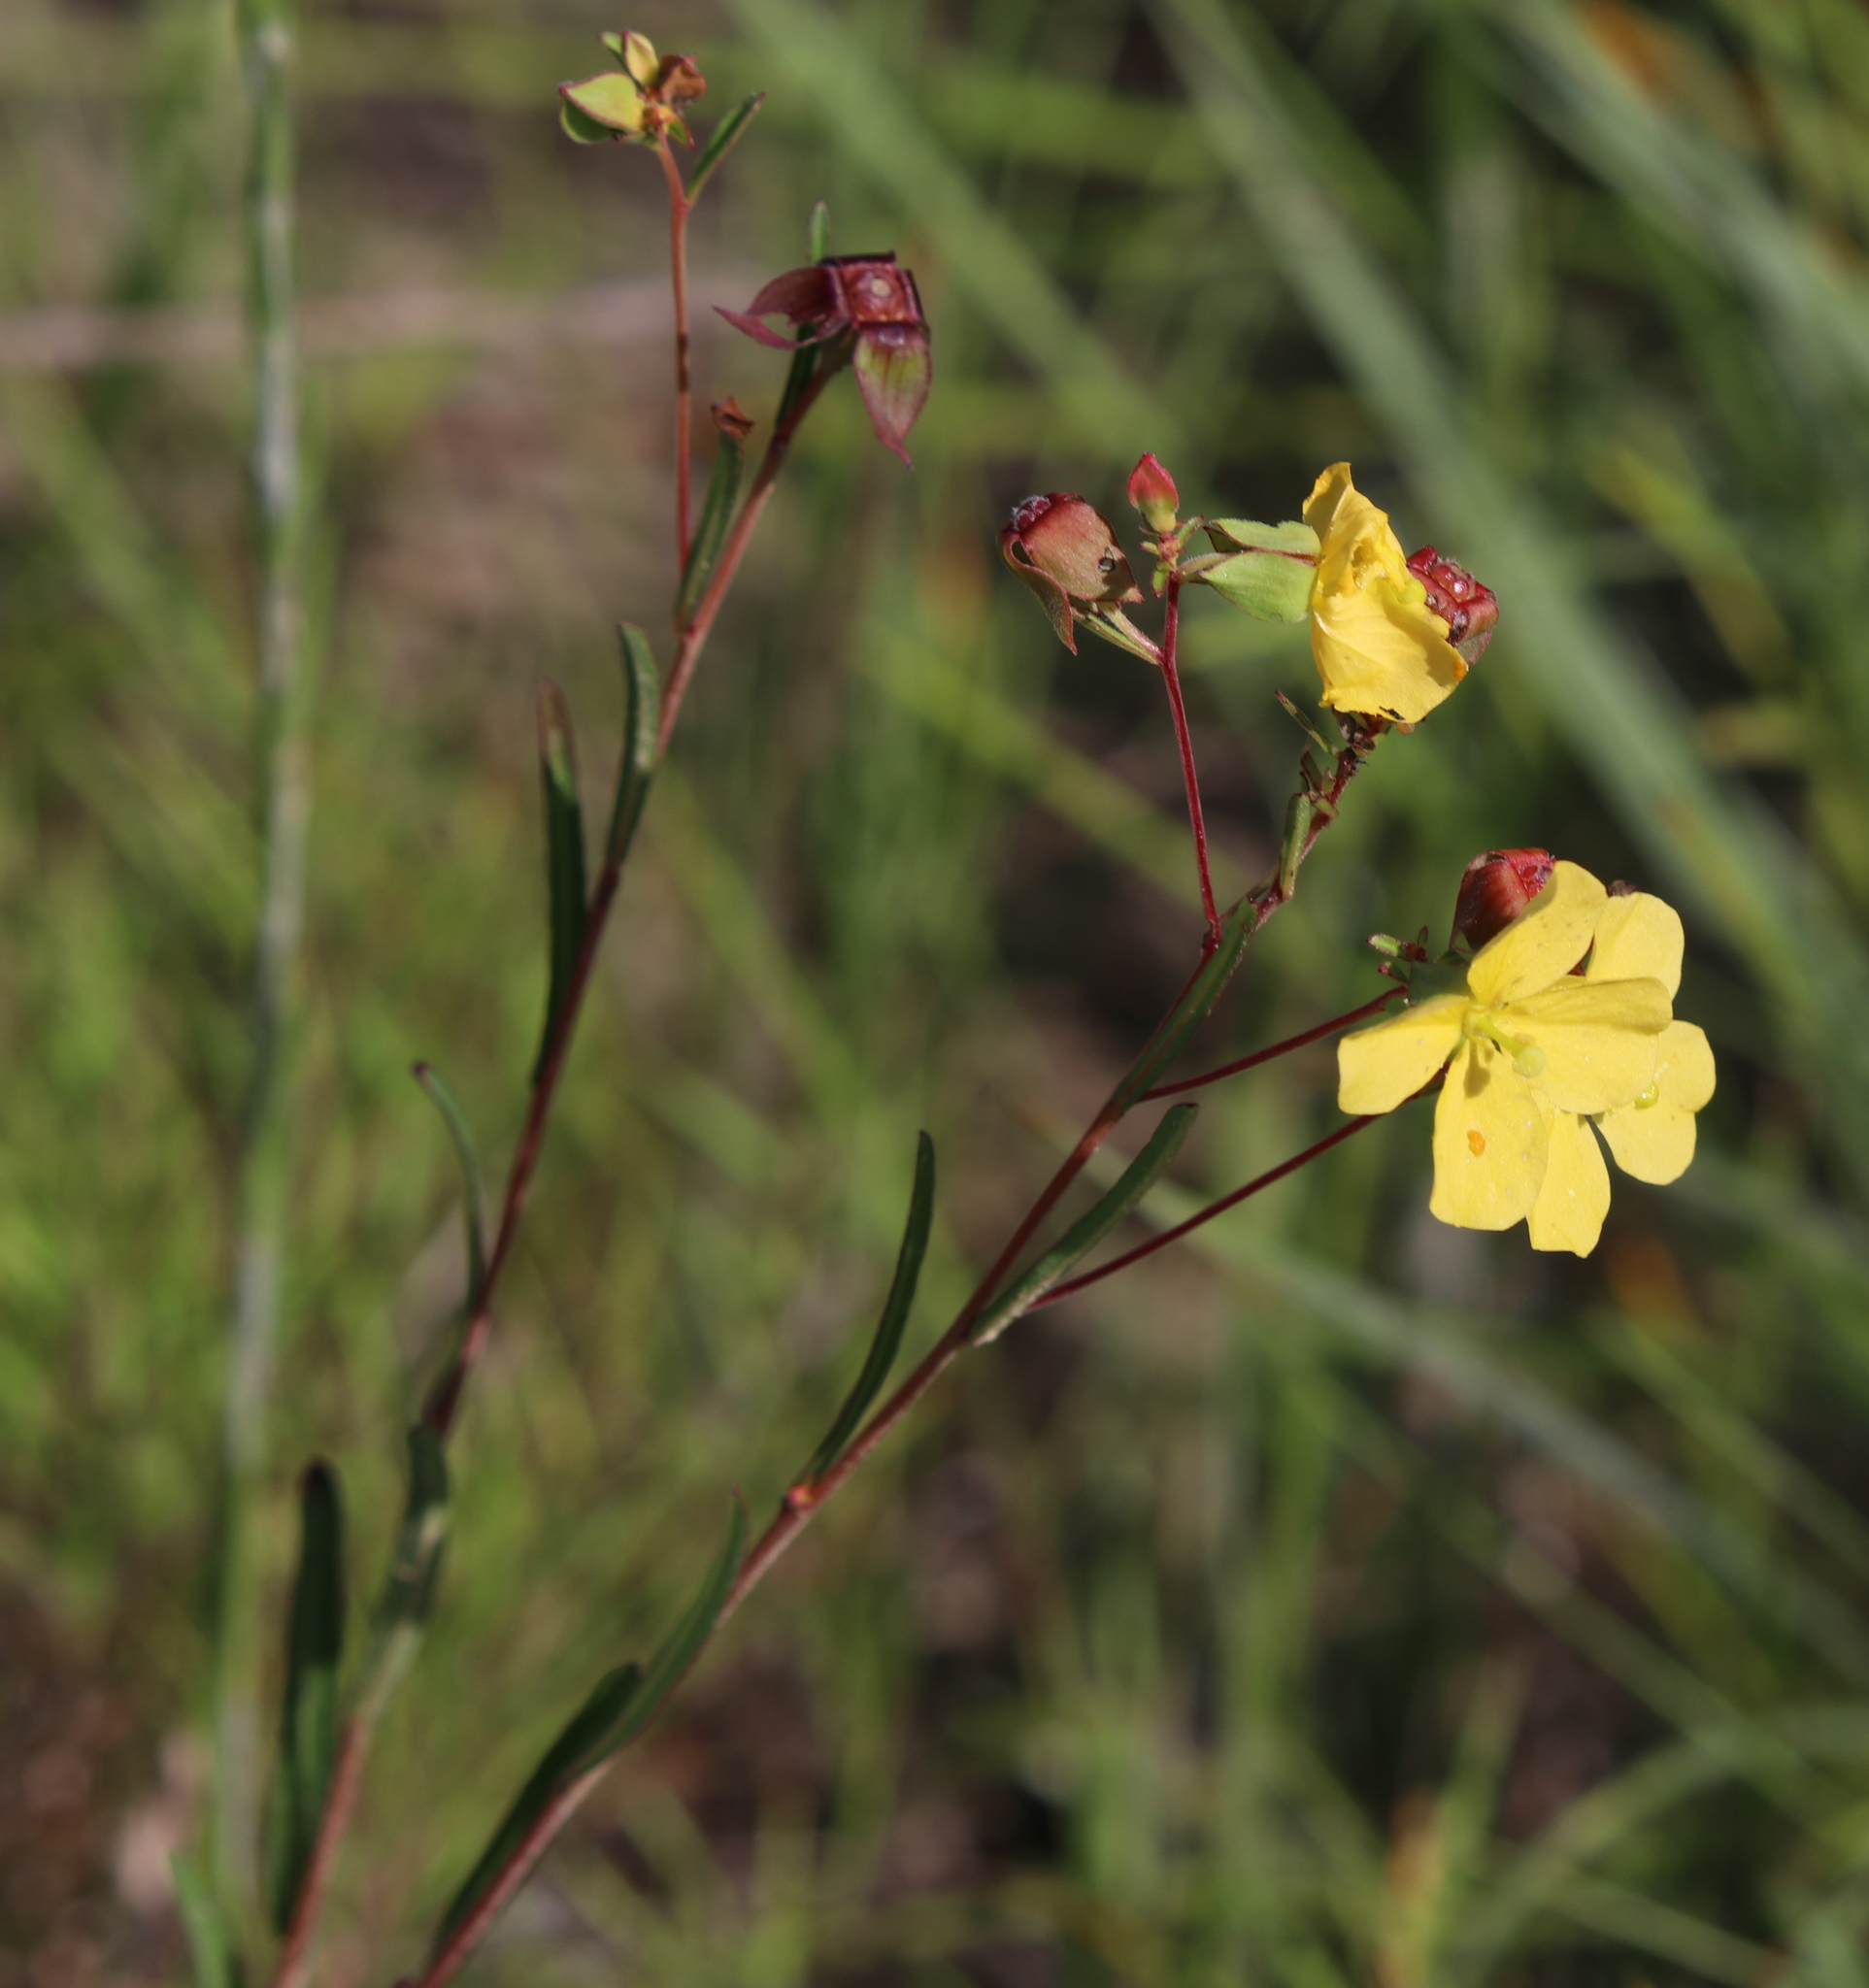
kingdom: Plantae
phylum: Tracheophyta
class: Magnoliopsida
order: Myrtales
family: Onagraceae
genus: Ludwigia
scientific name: Ludwigia maritima
